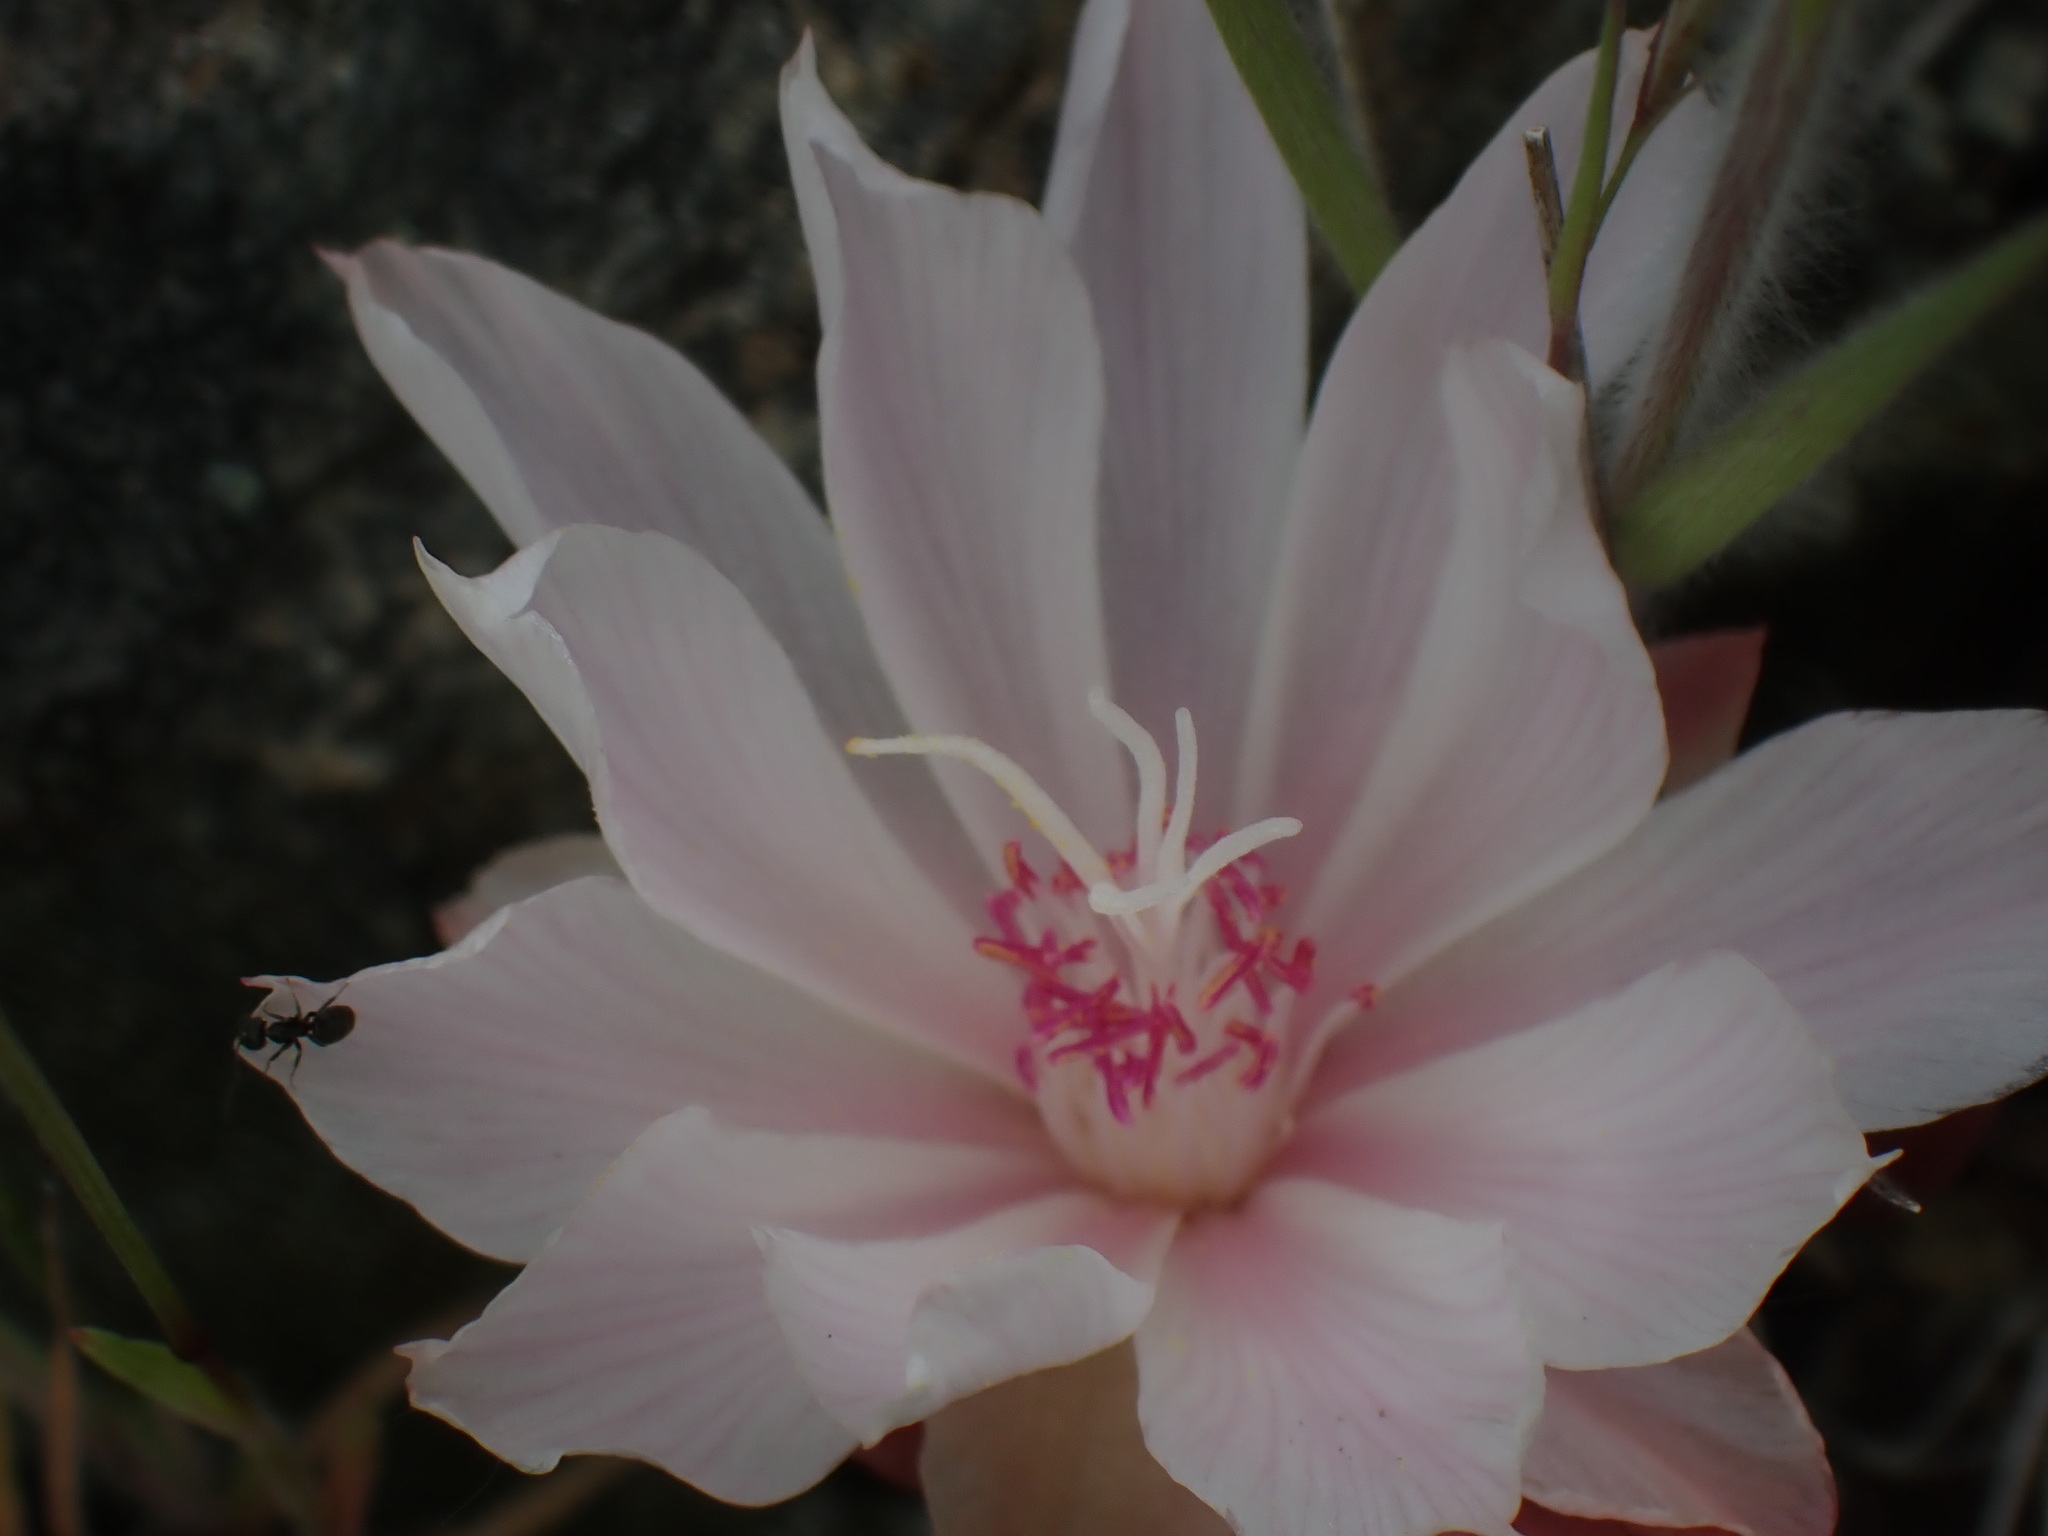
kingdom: Plantae
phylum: Tracheophyta
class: Magnoliopsida
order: Caryophyllales
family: Montiaceae
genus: Lewisia
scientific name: Lewisia rediviva
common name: Bitter-root
